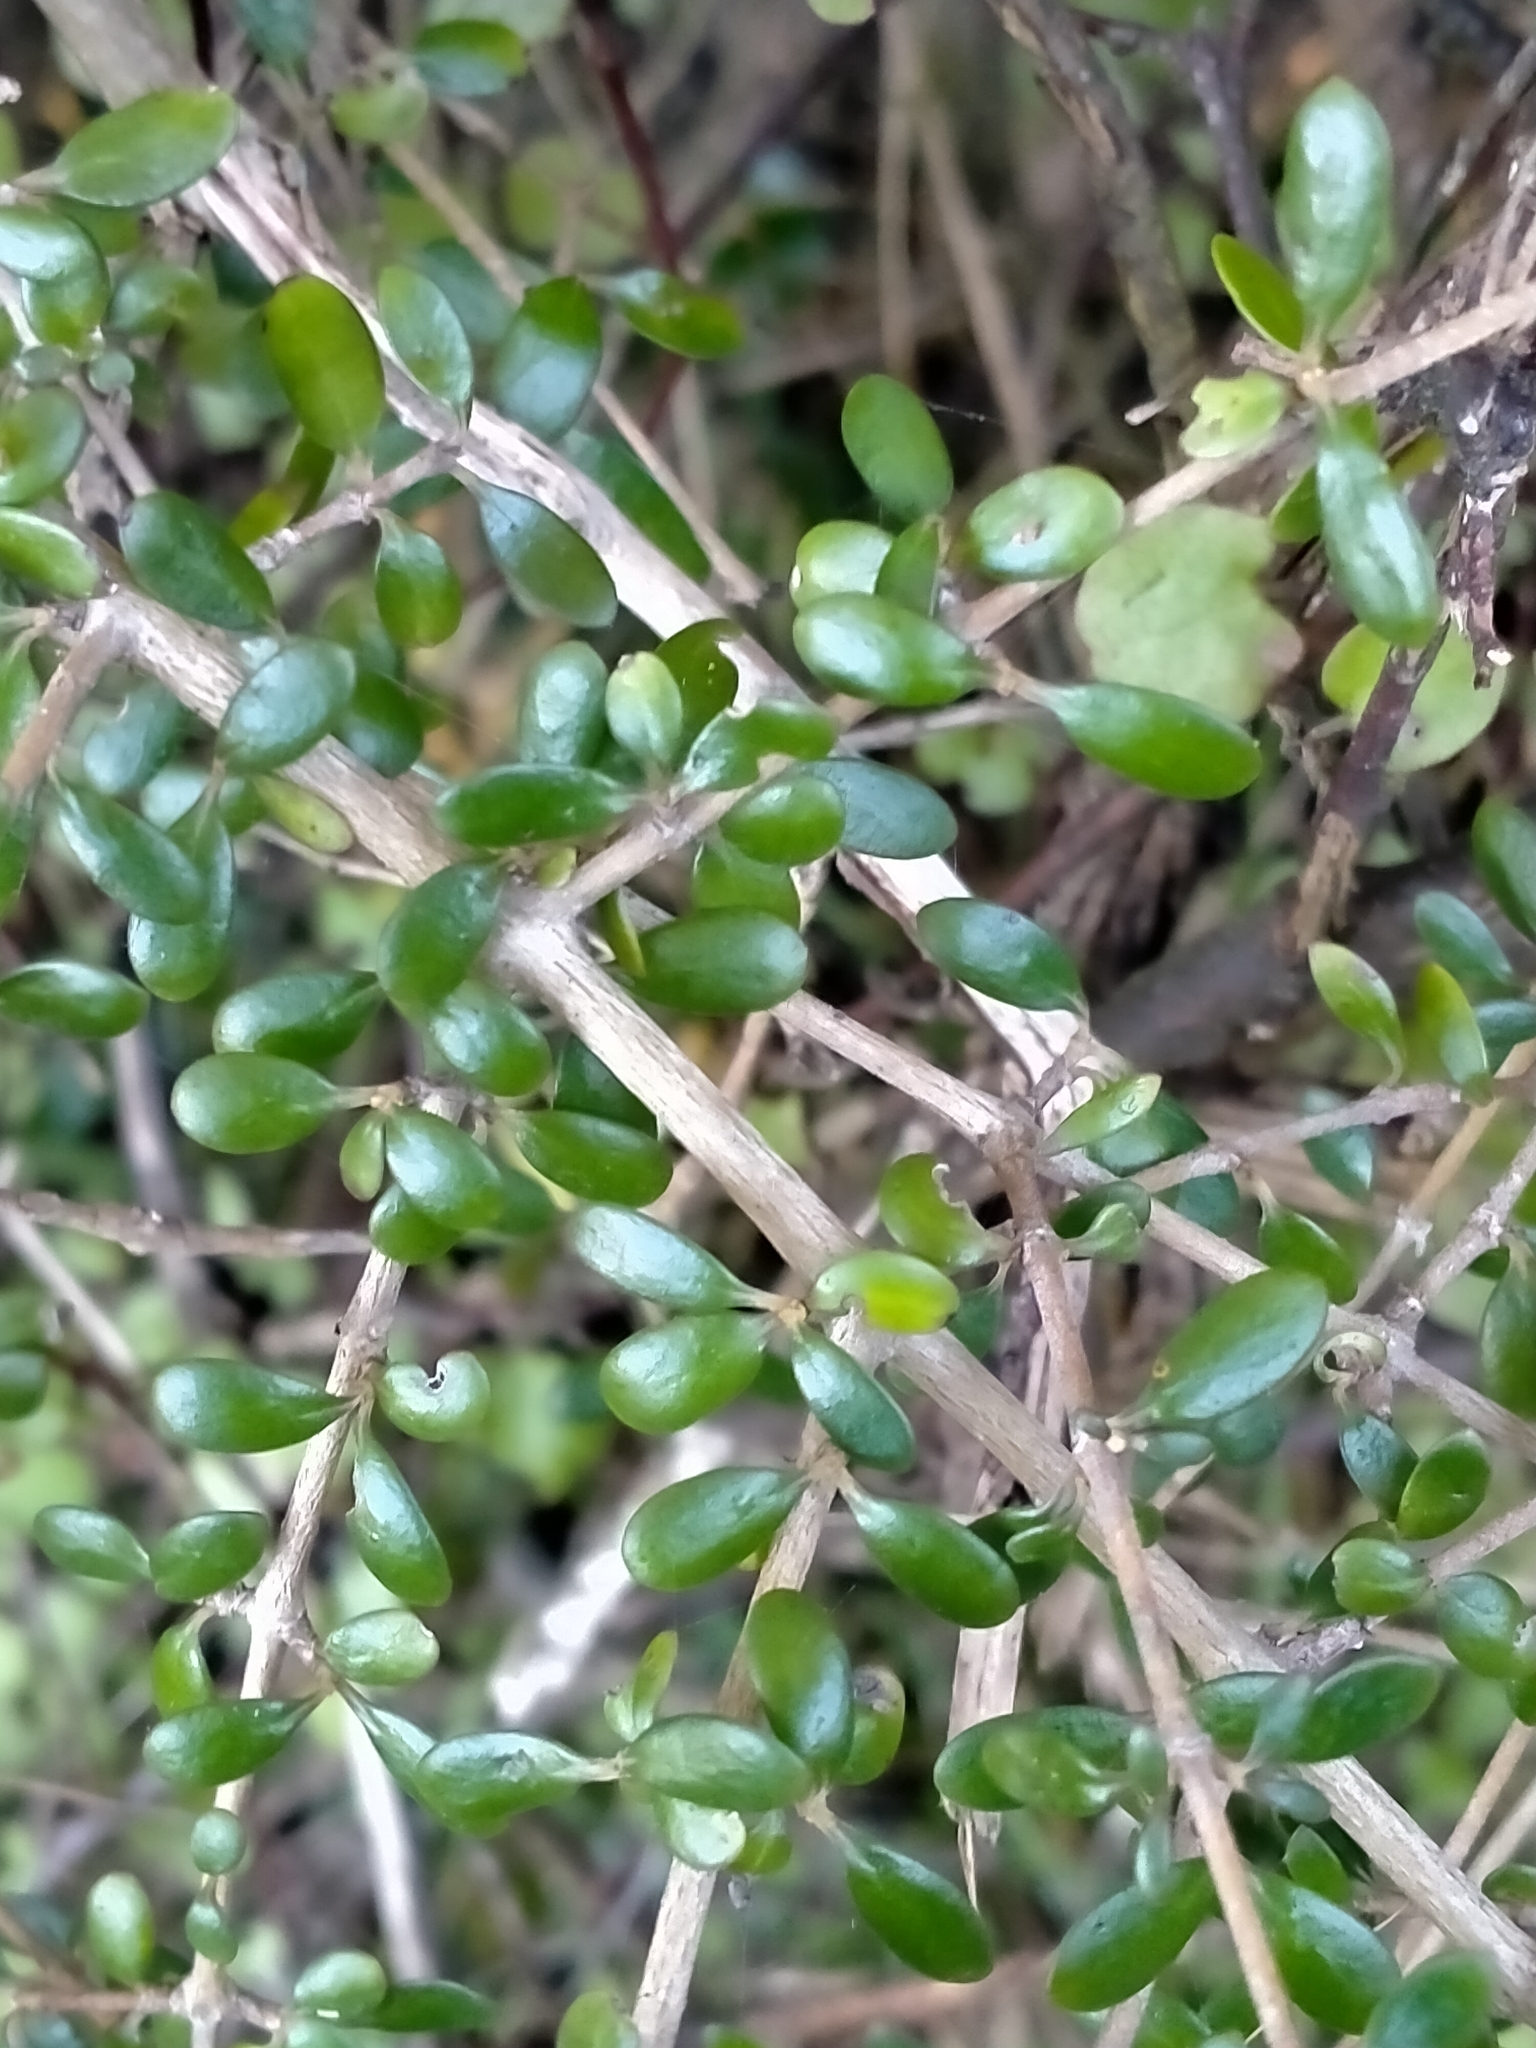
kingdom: Plantae
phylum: Tracheophyta
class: Magnoliopsida
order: Gentianales
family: Rubiaceae
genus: Coprosma
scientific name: Coprosma propinqua
